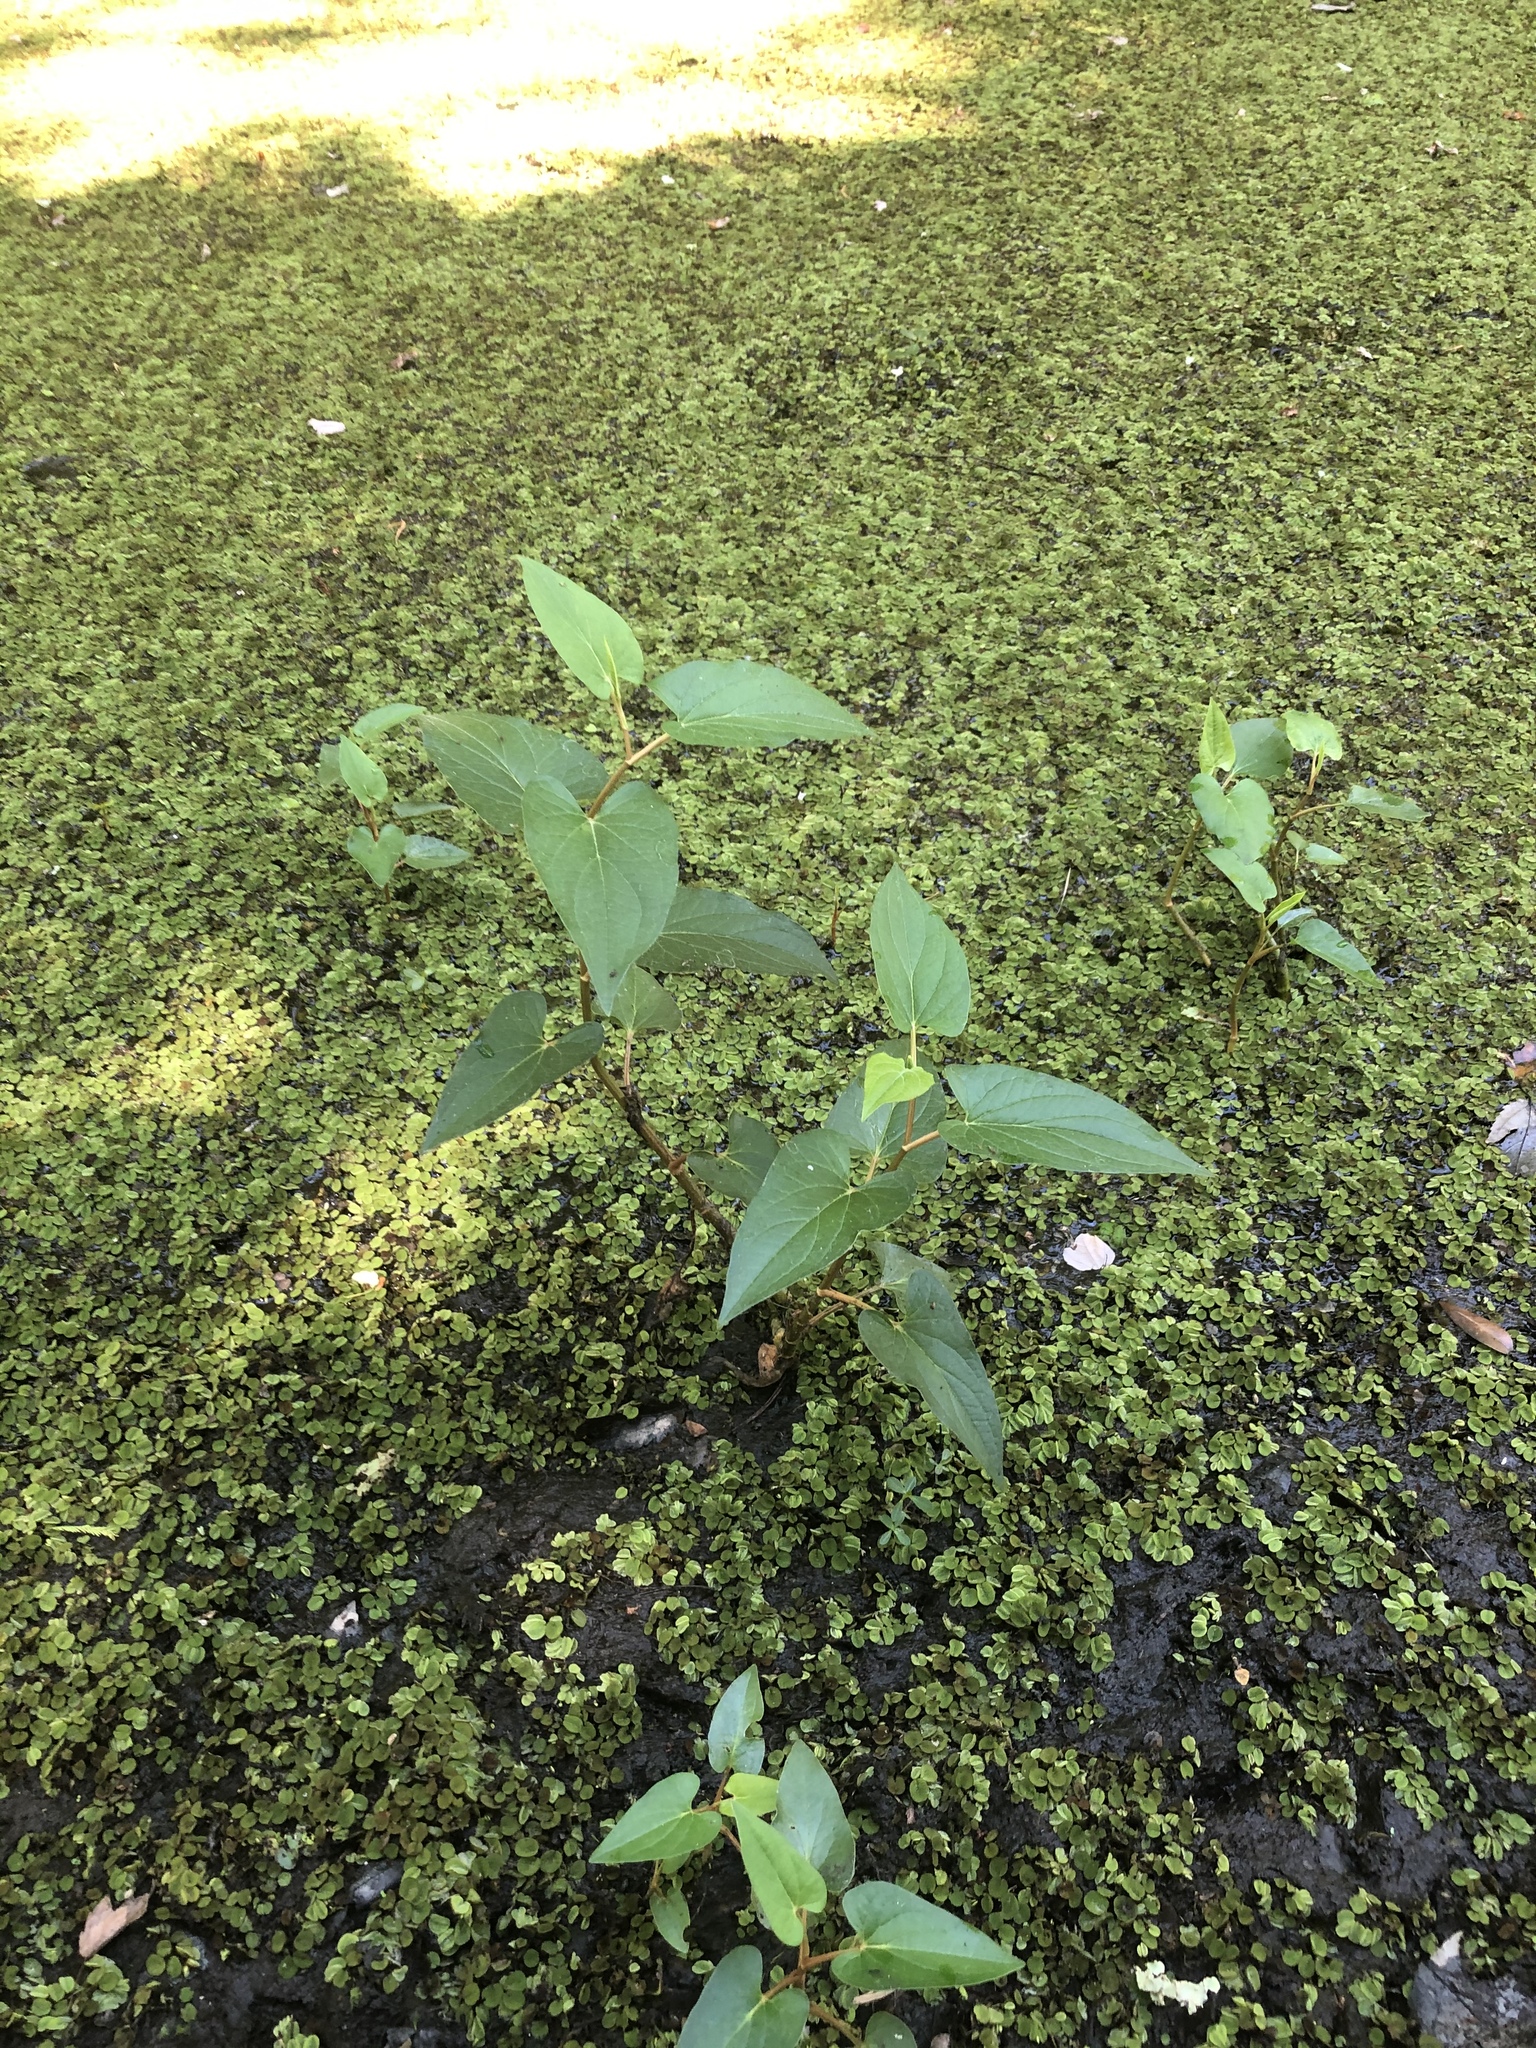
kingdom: Plantae
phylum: Tracheophyta
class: Magnoliopsida
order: Piperales
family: Saururaceae
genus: Saururus
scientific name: Saururus cernuus
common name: Lizard's-tail
